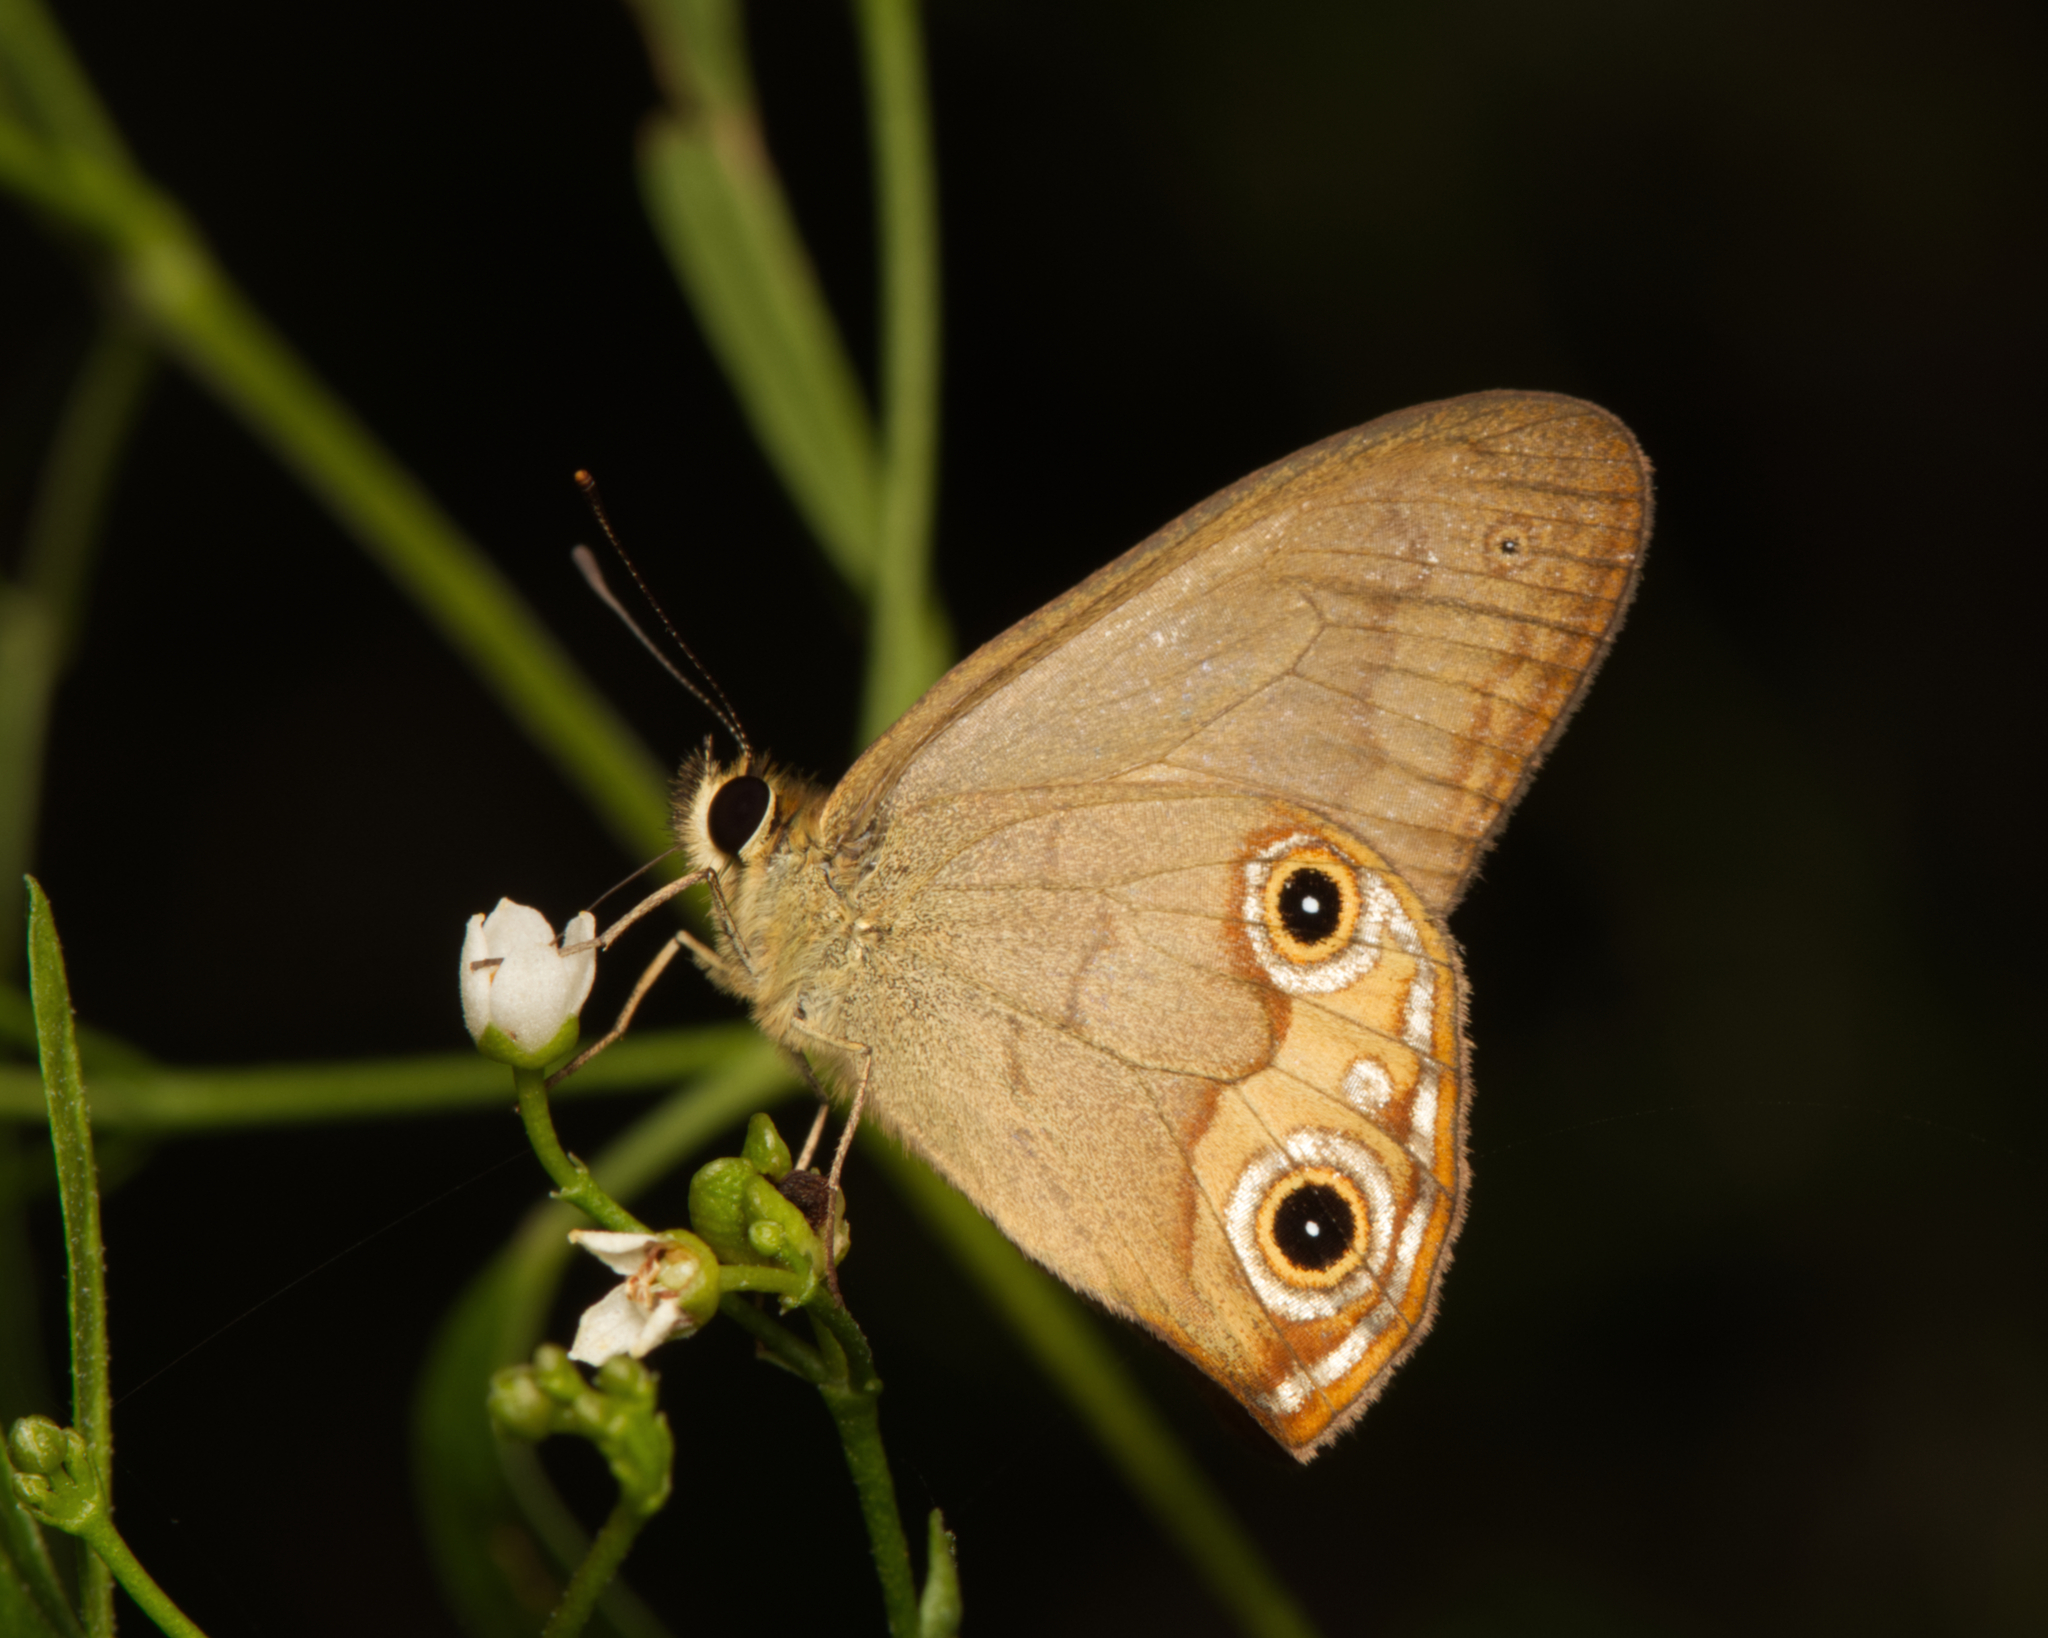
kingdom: Animalia
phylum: Arthropoda
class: Insecta
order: Lepidoptera
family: Nymphalidae
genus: Hypocysta
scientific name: Hypocysta metirius
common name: Brown ringlet
